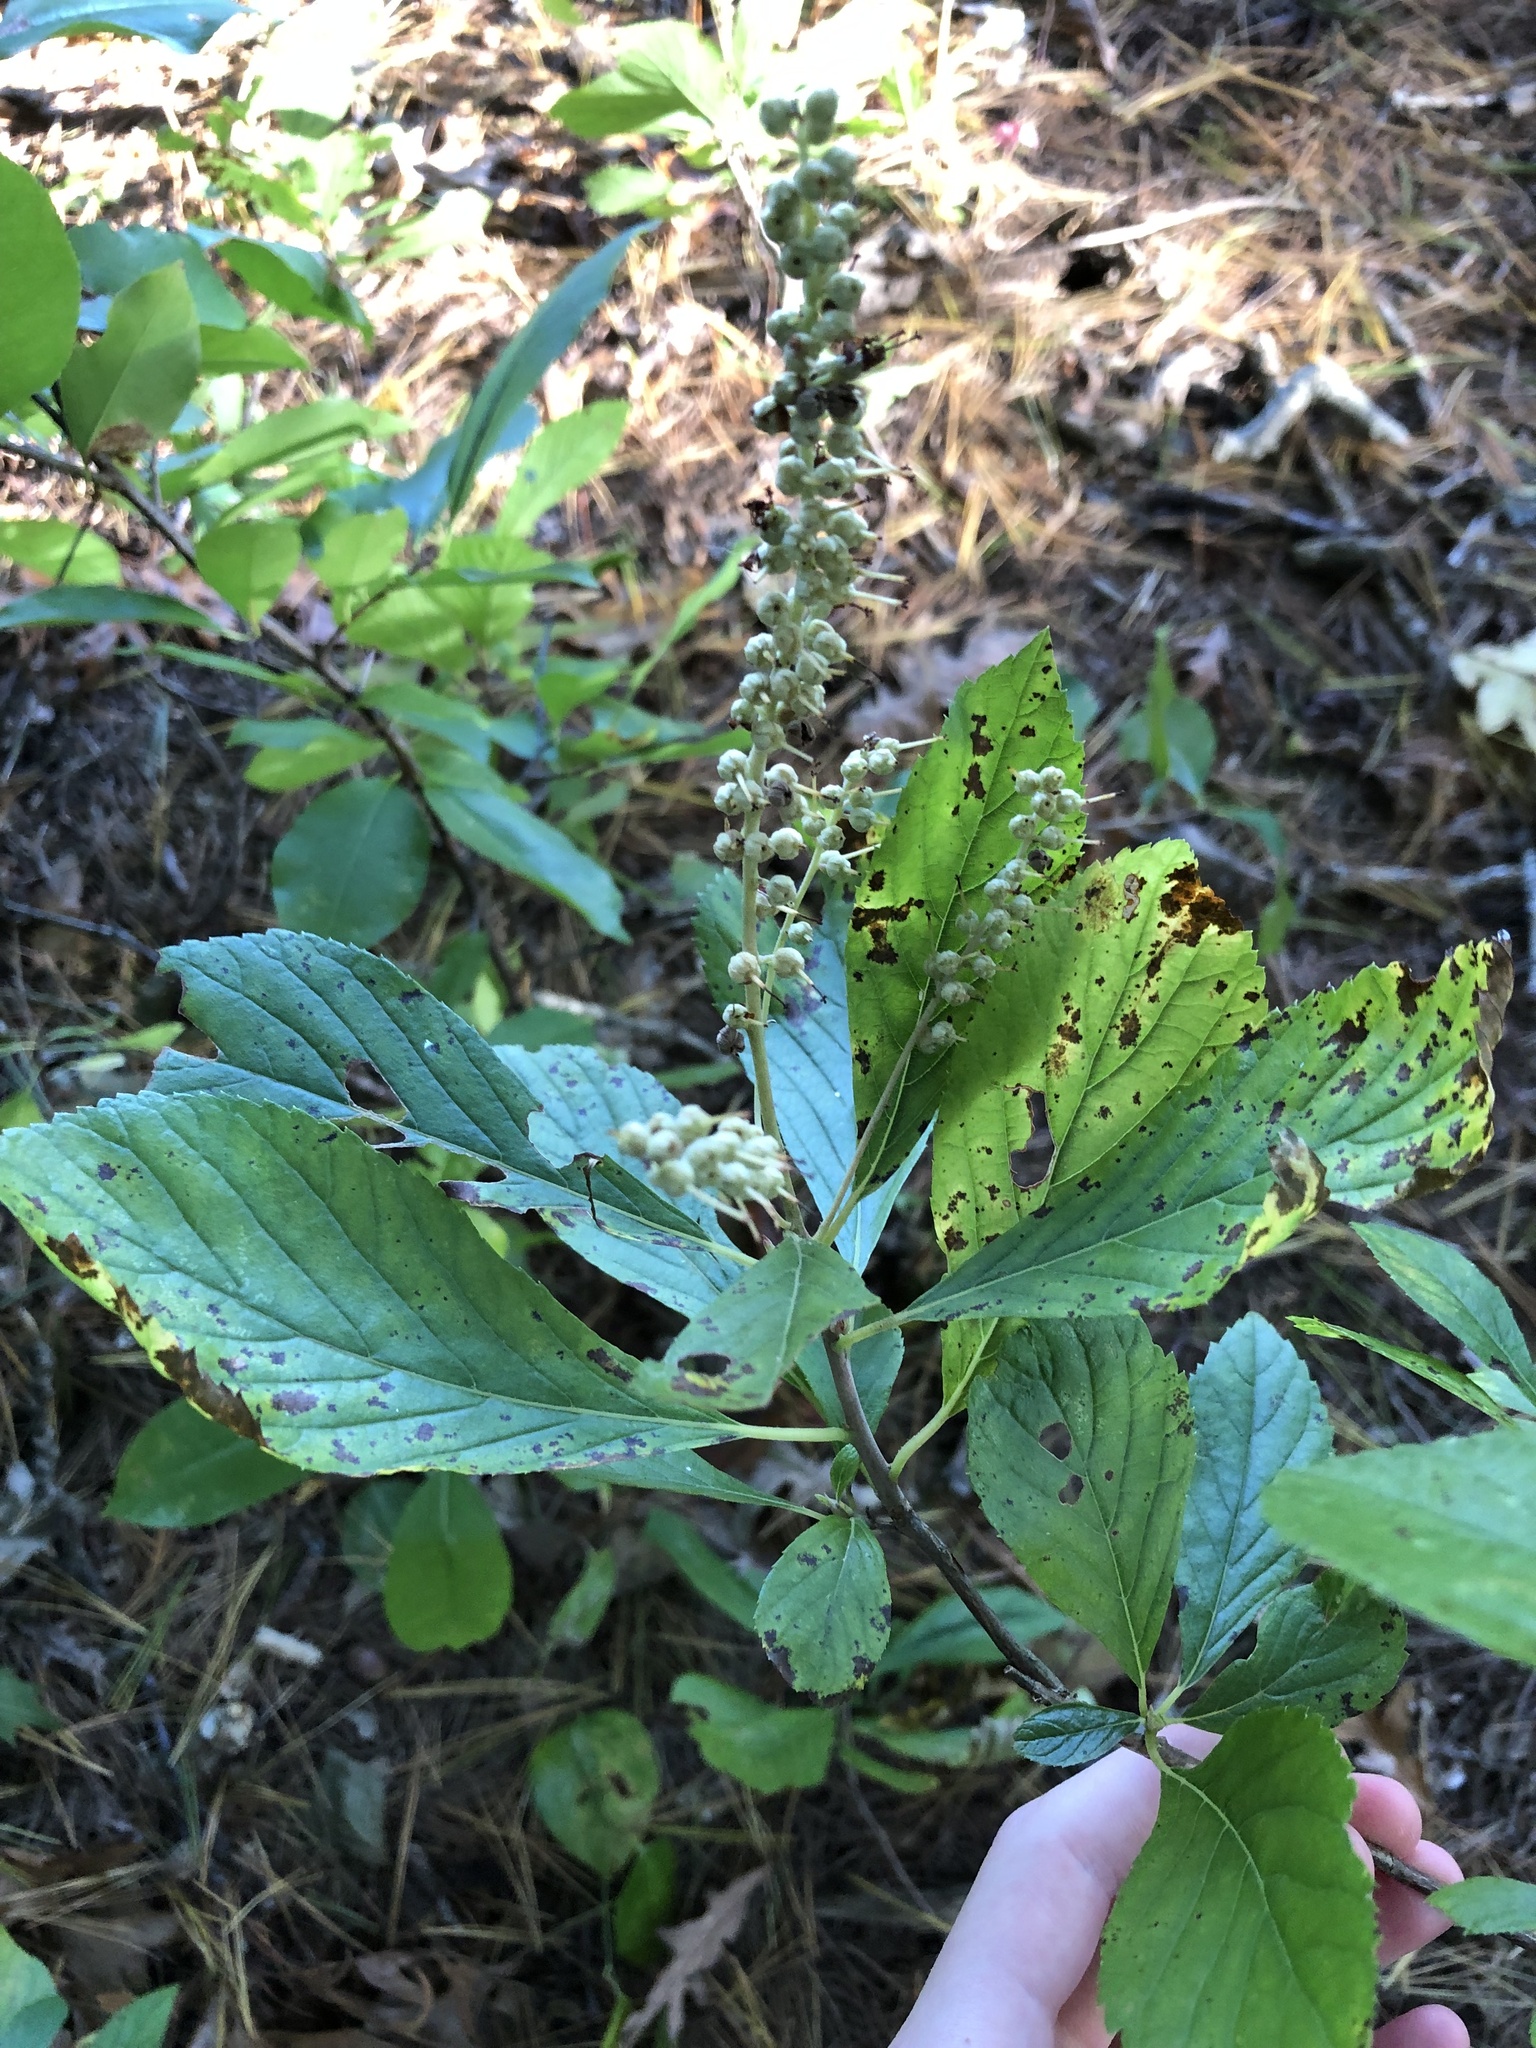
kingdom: Plantae
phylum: Tracheophyta
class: Magnoliopsida
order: Ericales
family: Clethraceae
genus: Clethra
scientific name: Clethra alnifolia
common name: Sweet pepperbush
